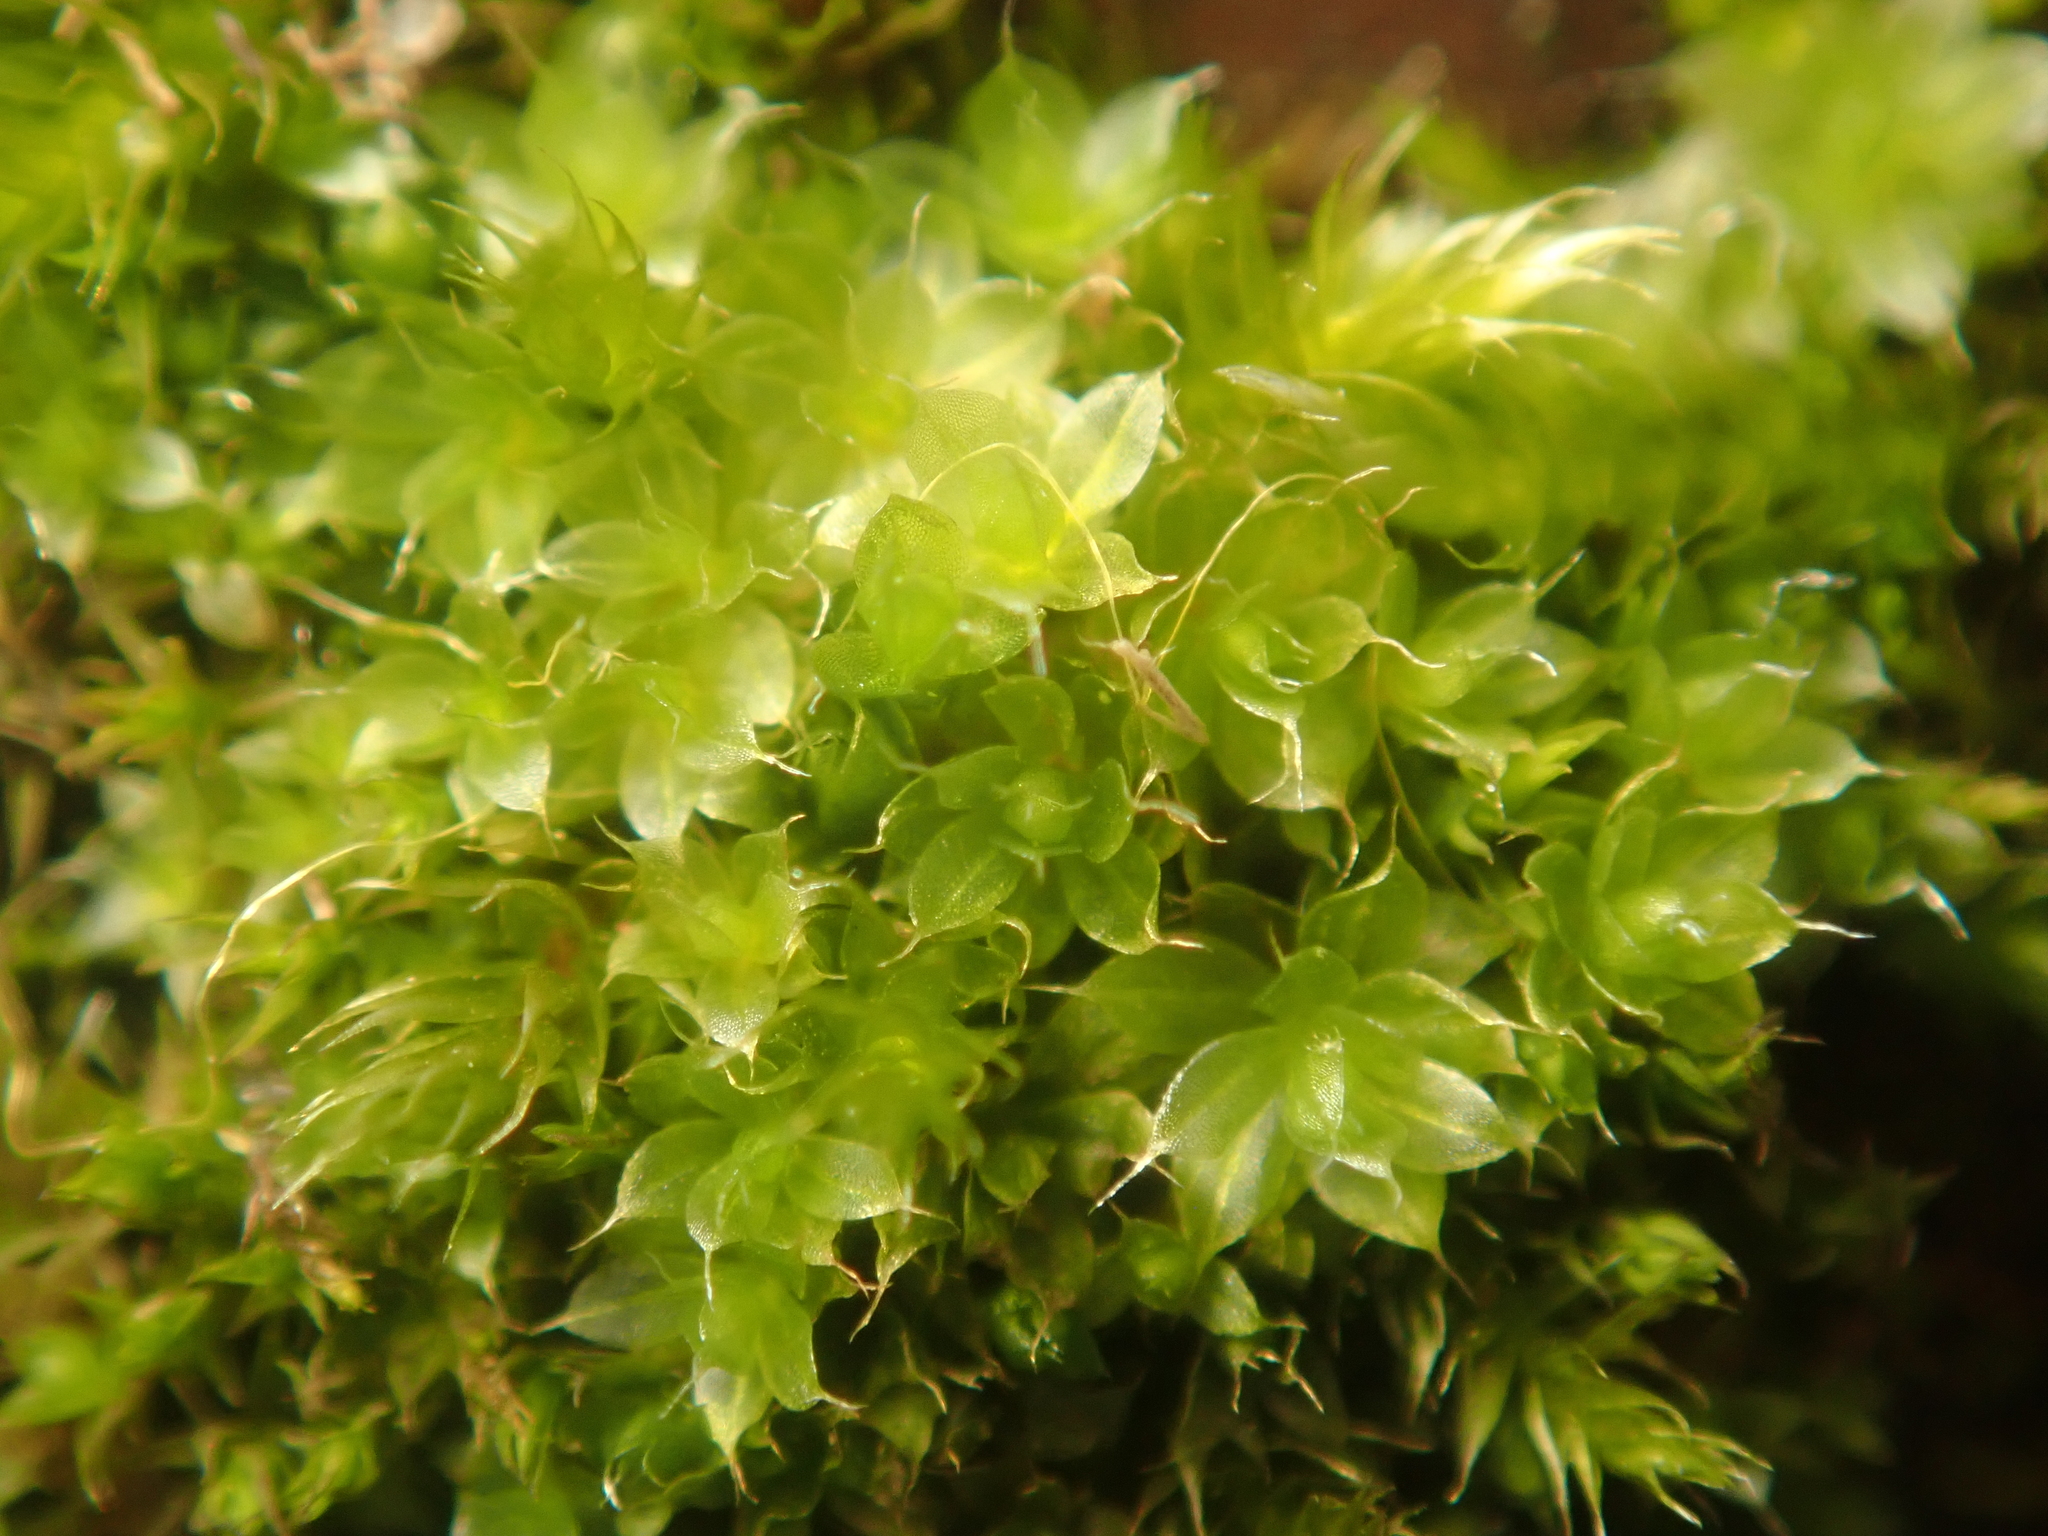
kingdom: Plantae
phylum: Bryophyta
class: Bryopsida
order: Bryales
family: Bryaceae
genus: Rosulabryum
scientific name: Rosulabryum capillare
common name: Capillary thread-moss
